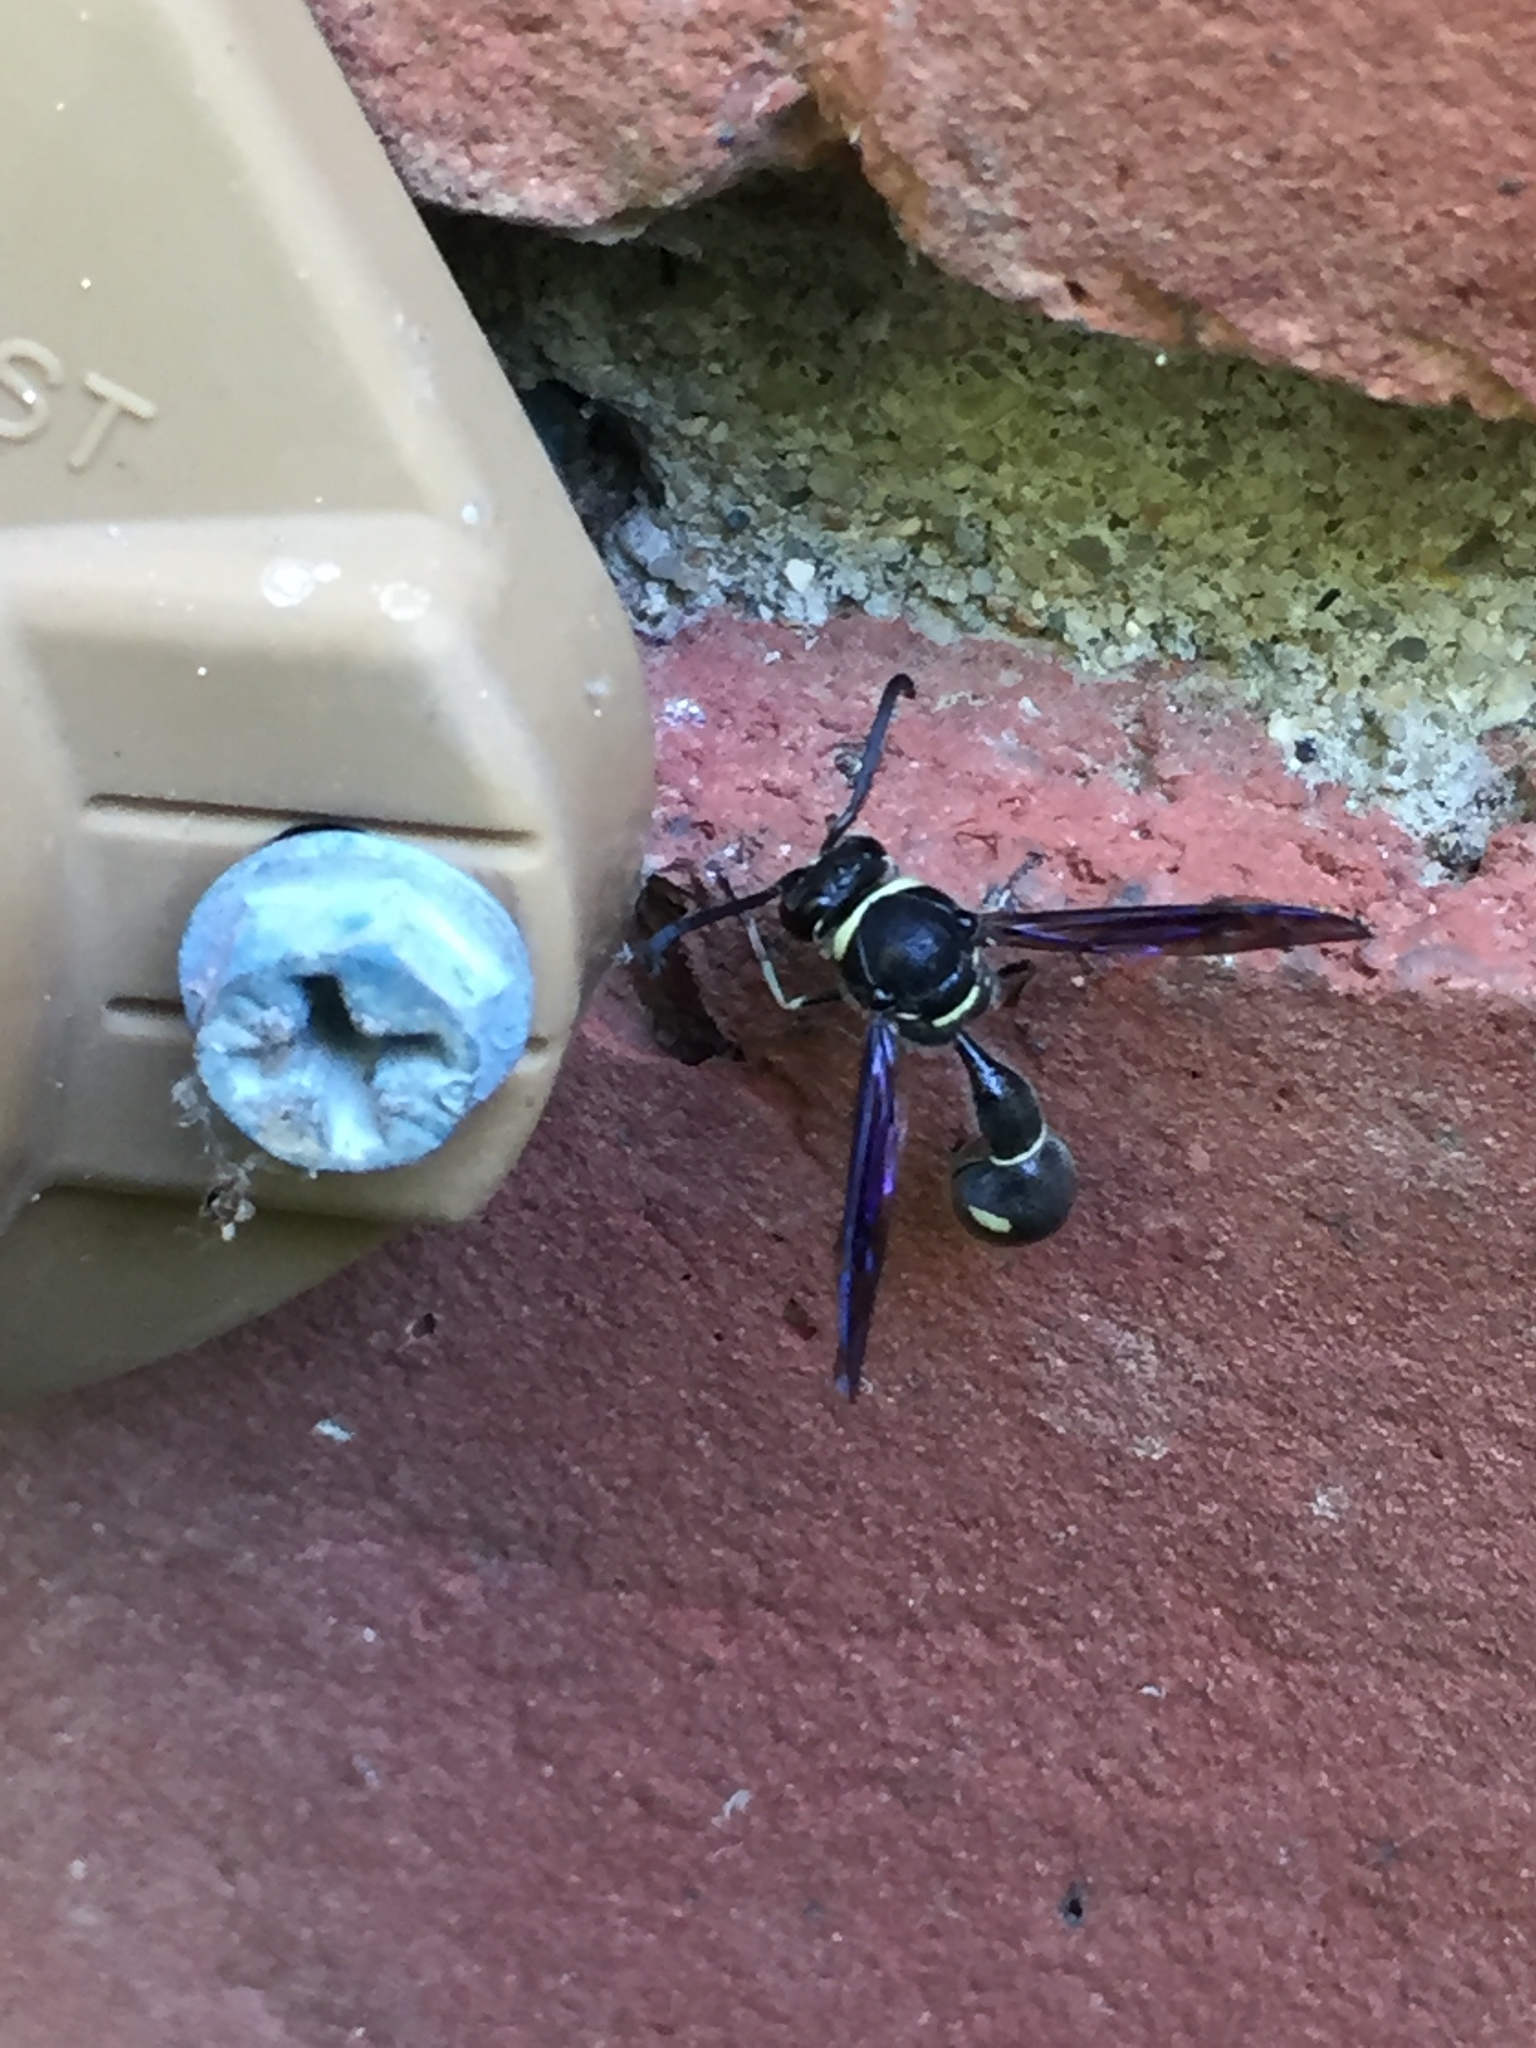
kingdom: Animalia
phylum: Arthropoda
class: Insecta
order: Hymenoptera
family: Vespidae
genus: Eumenes
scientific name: Eumenes fraternus
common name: Fraternal potter wasp
